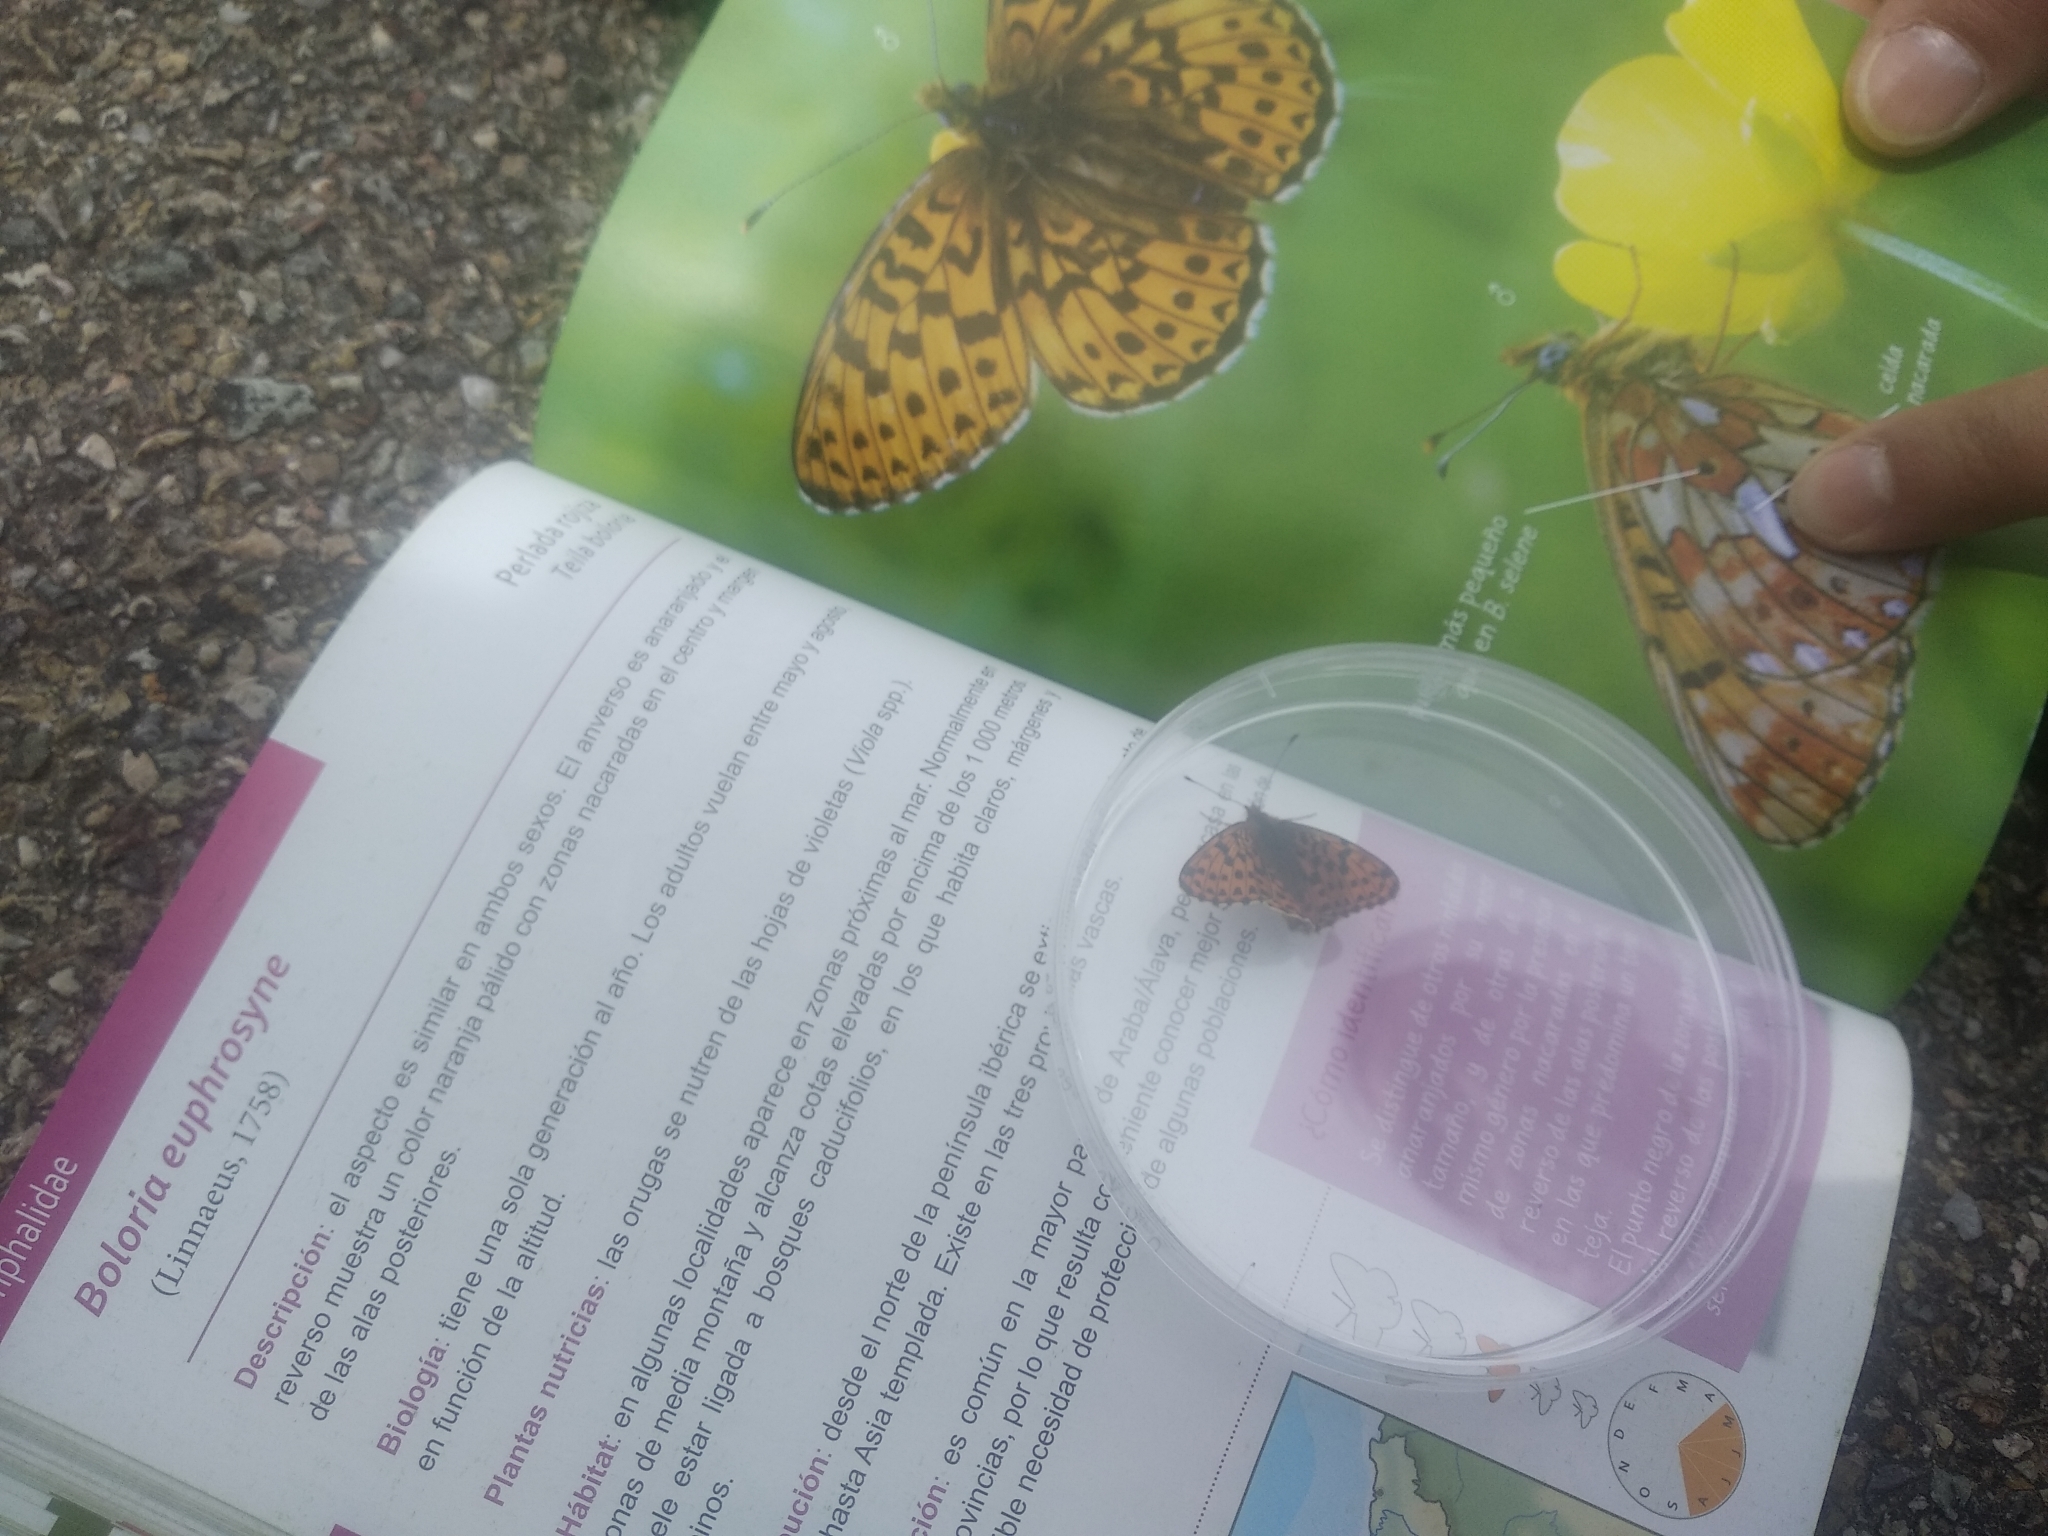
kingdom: Animalia
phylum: Arthropoda
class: Insecta
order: Lepidoptera
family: Nymphalidae
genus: Clossiana
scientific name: Clossiana euphrosyne
